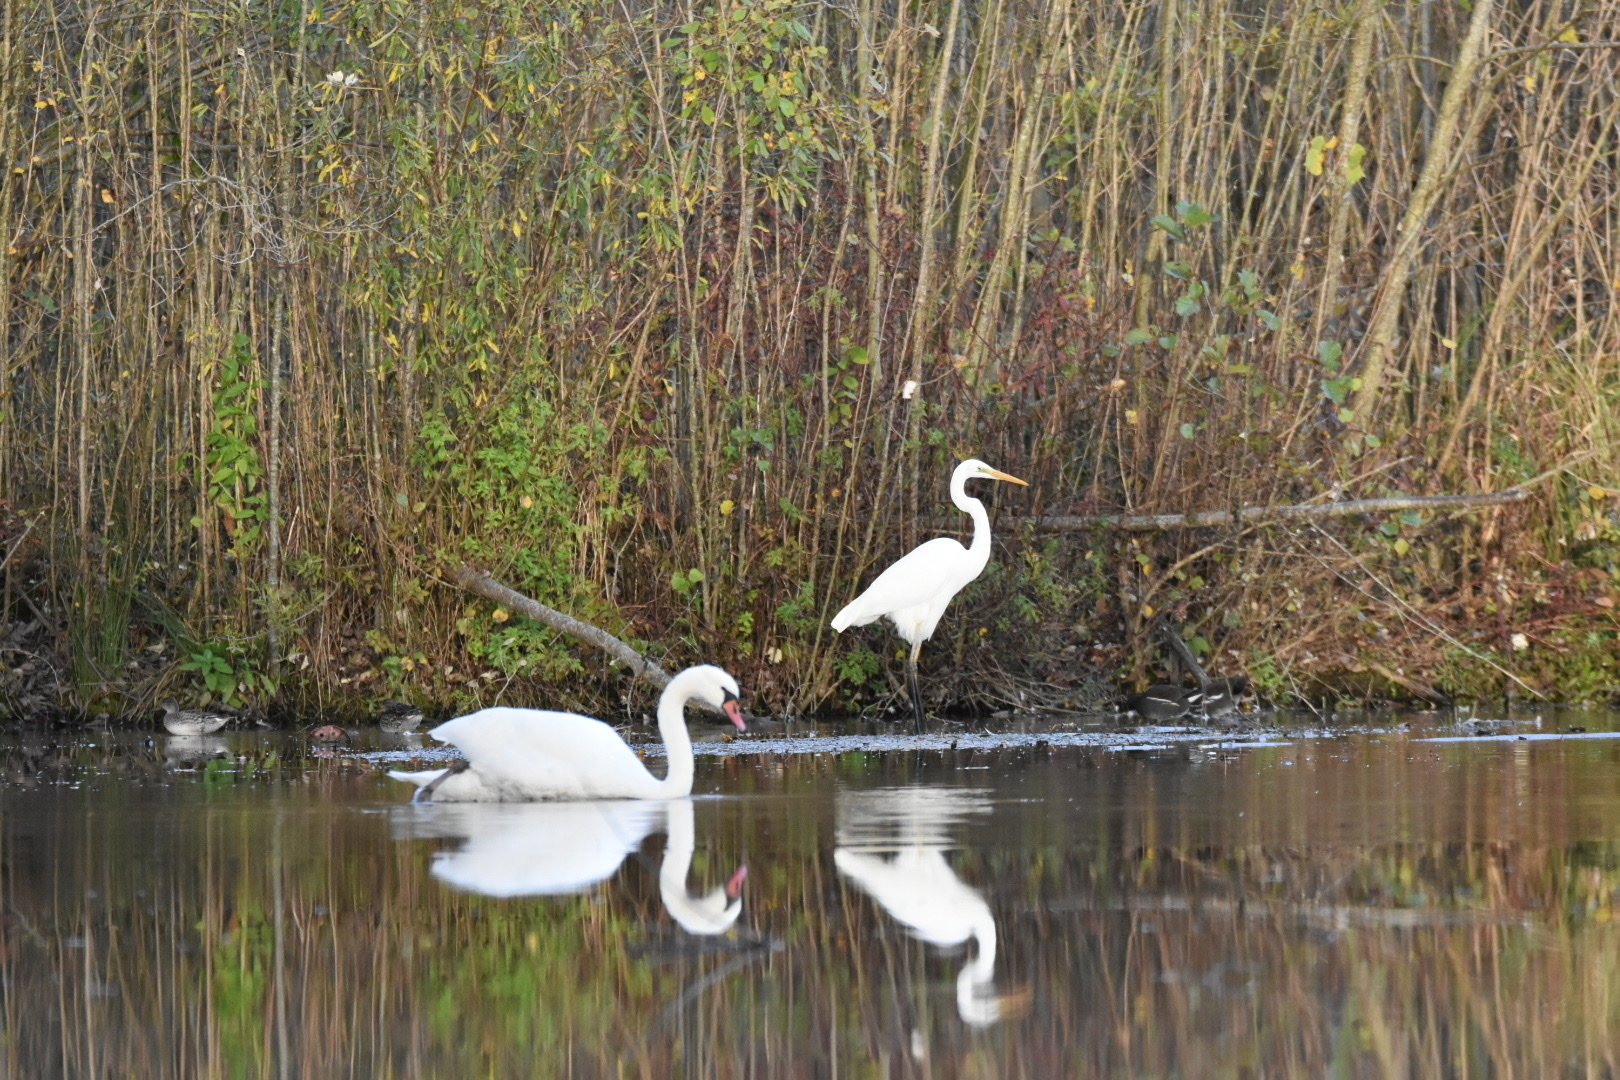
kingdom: Animalia
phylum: Chordata
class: Aves
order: Pelecaniformes
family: Ardeidae
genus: Ardea
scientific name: Ardea alba
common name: Great egret
